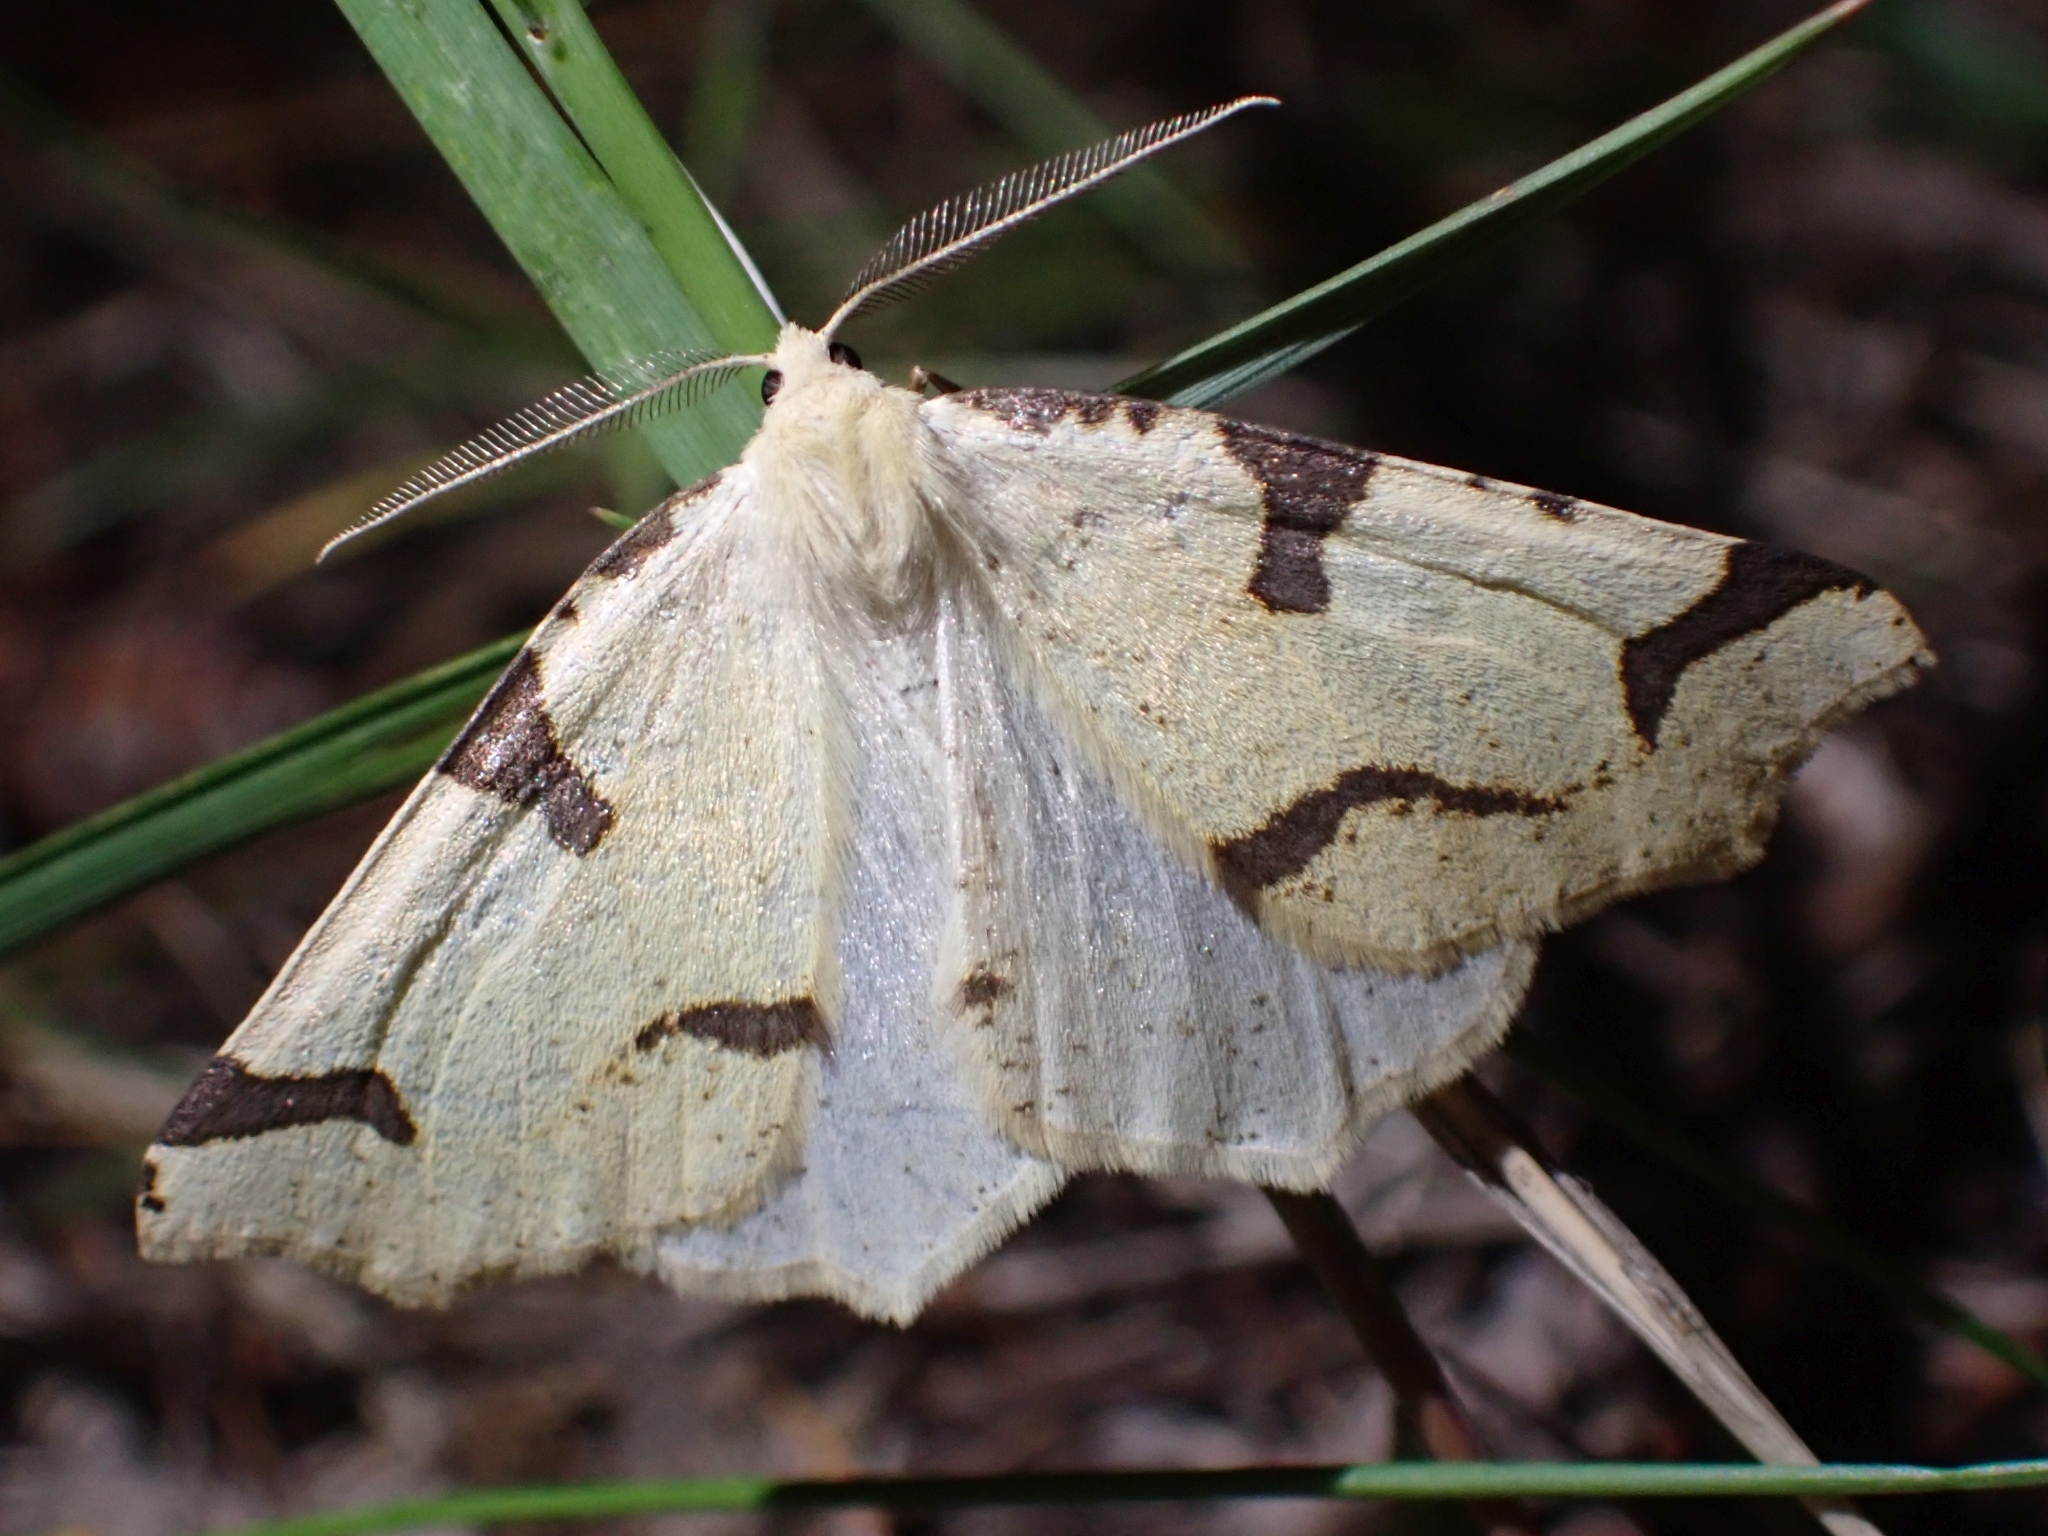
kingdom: Animalia
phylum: Arthropoda
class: Insecta
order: Lepidoptera
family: Geometridae
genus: Neoterpes
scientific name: Neoterpes trianguliferata
